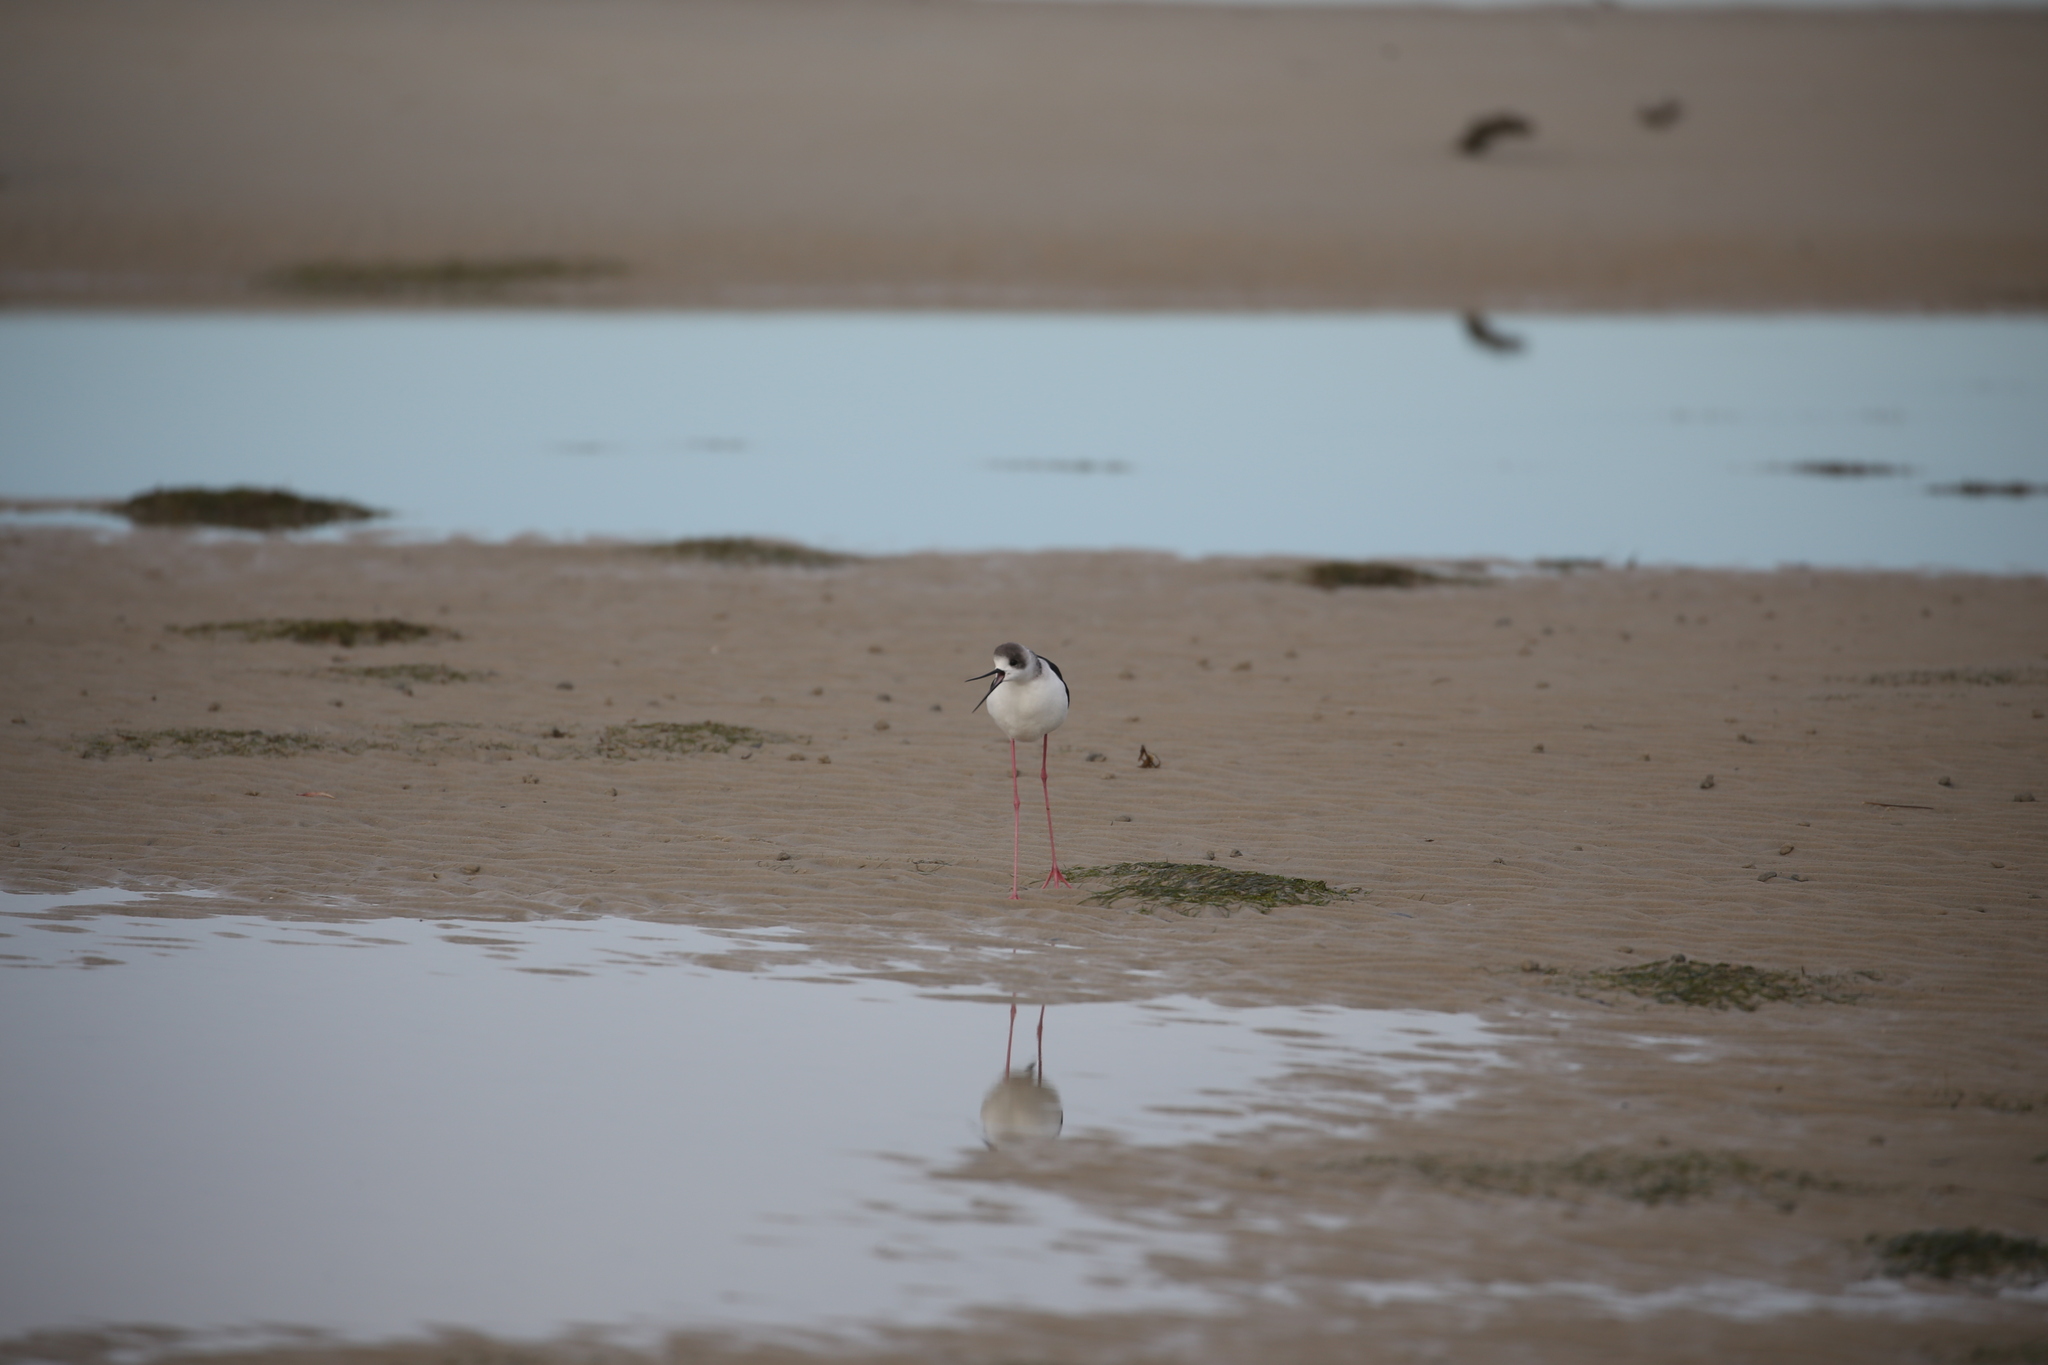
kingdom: Animalia
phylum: Chordata
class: Aves
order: Charadriiformes
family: Recurvirostridae
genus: Himantopus
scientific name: Himantopus leucocephalus
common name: White-headed stilt
